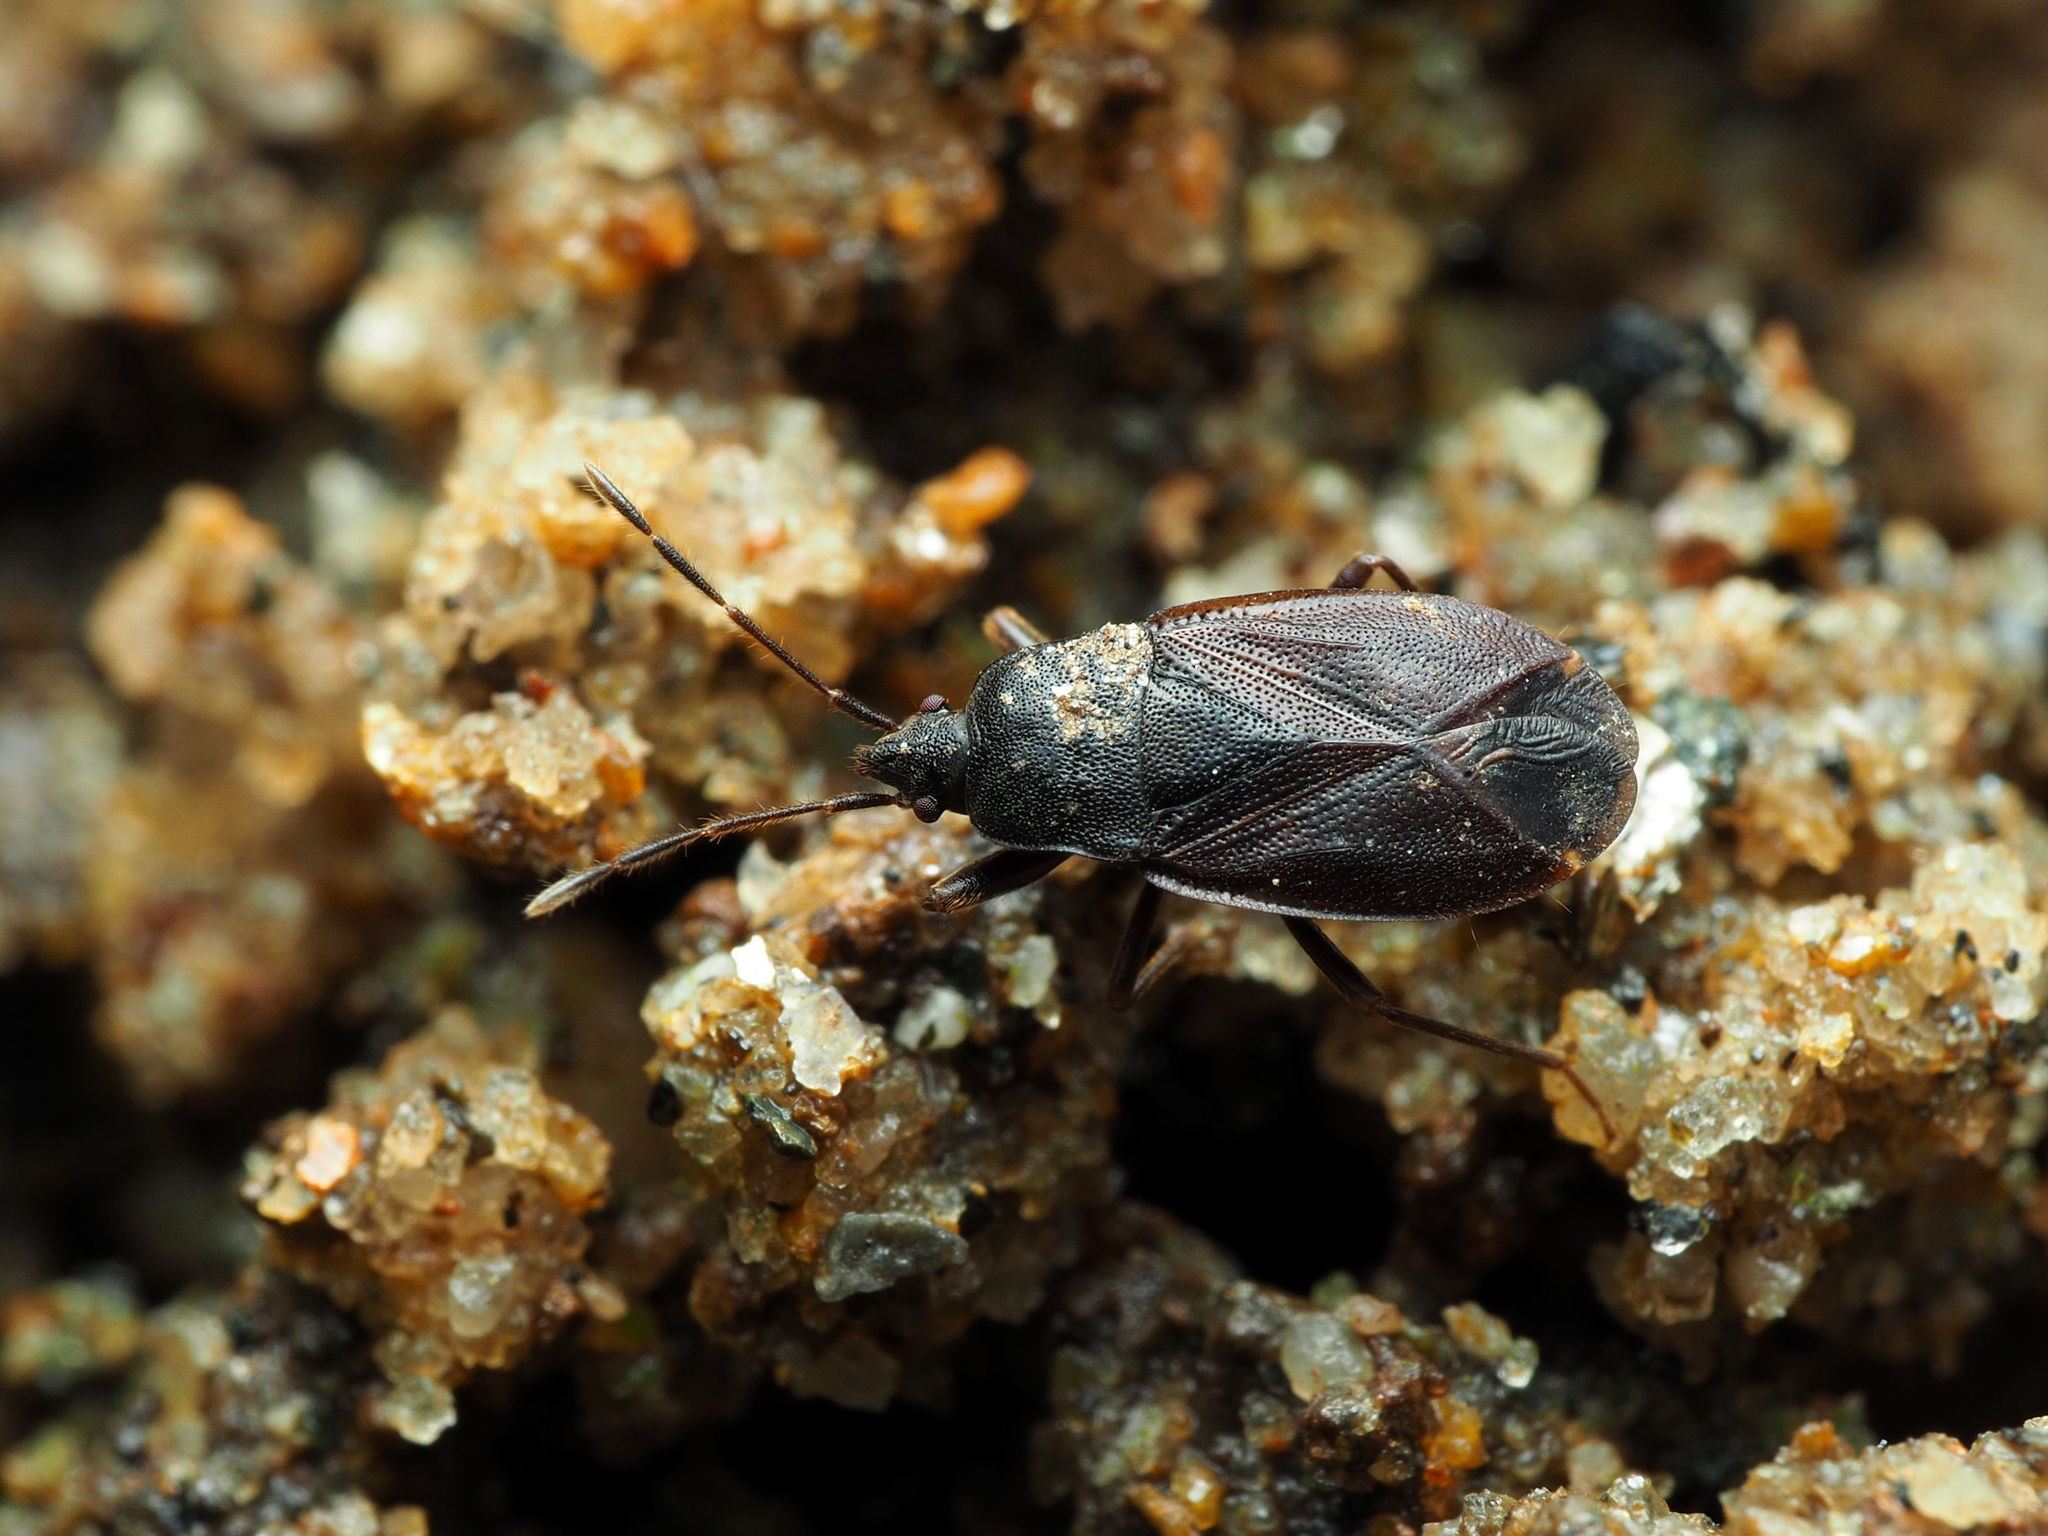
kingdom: Animalia
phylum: Arthropoda
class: Insecta
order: Hemiptera
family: Rhyparochromidae
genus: Drymus
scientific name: Drymus crassus
